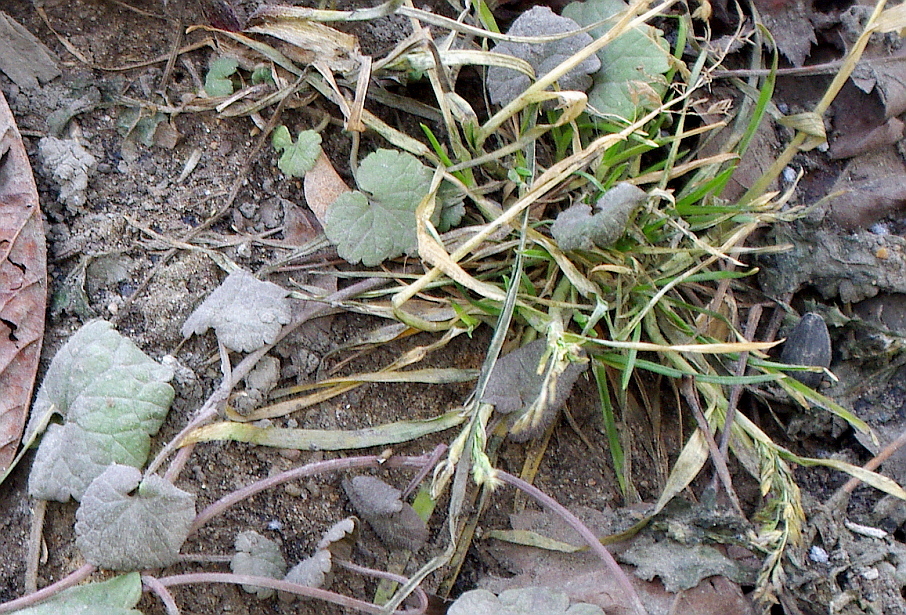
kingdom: Plantae
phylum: Tracheophyta
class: Liliopsida
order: Poales
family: Poaceae
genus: Poa
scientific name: Poa annua
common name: Annual bluegrass
